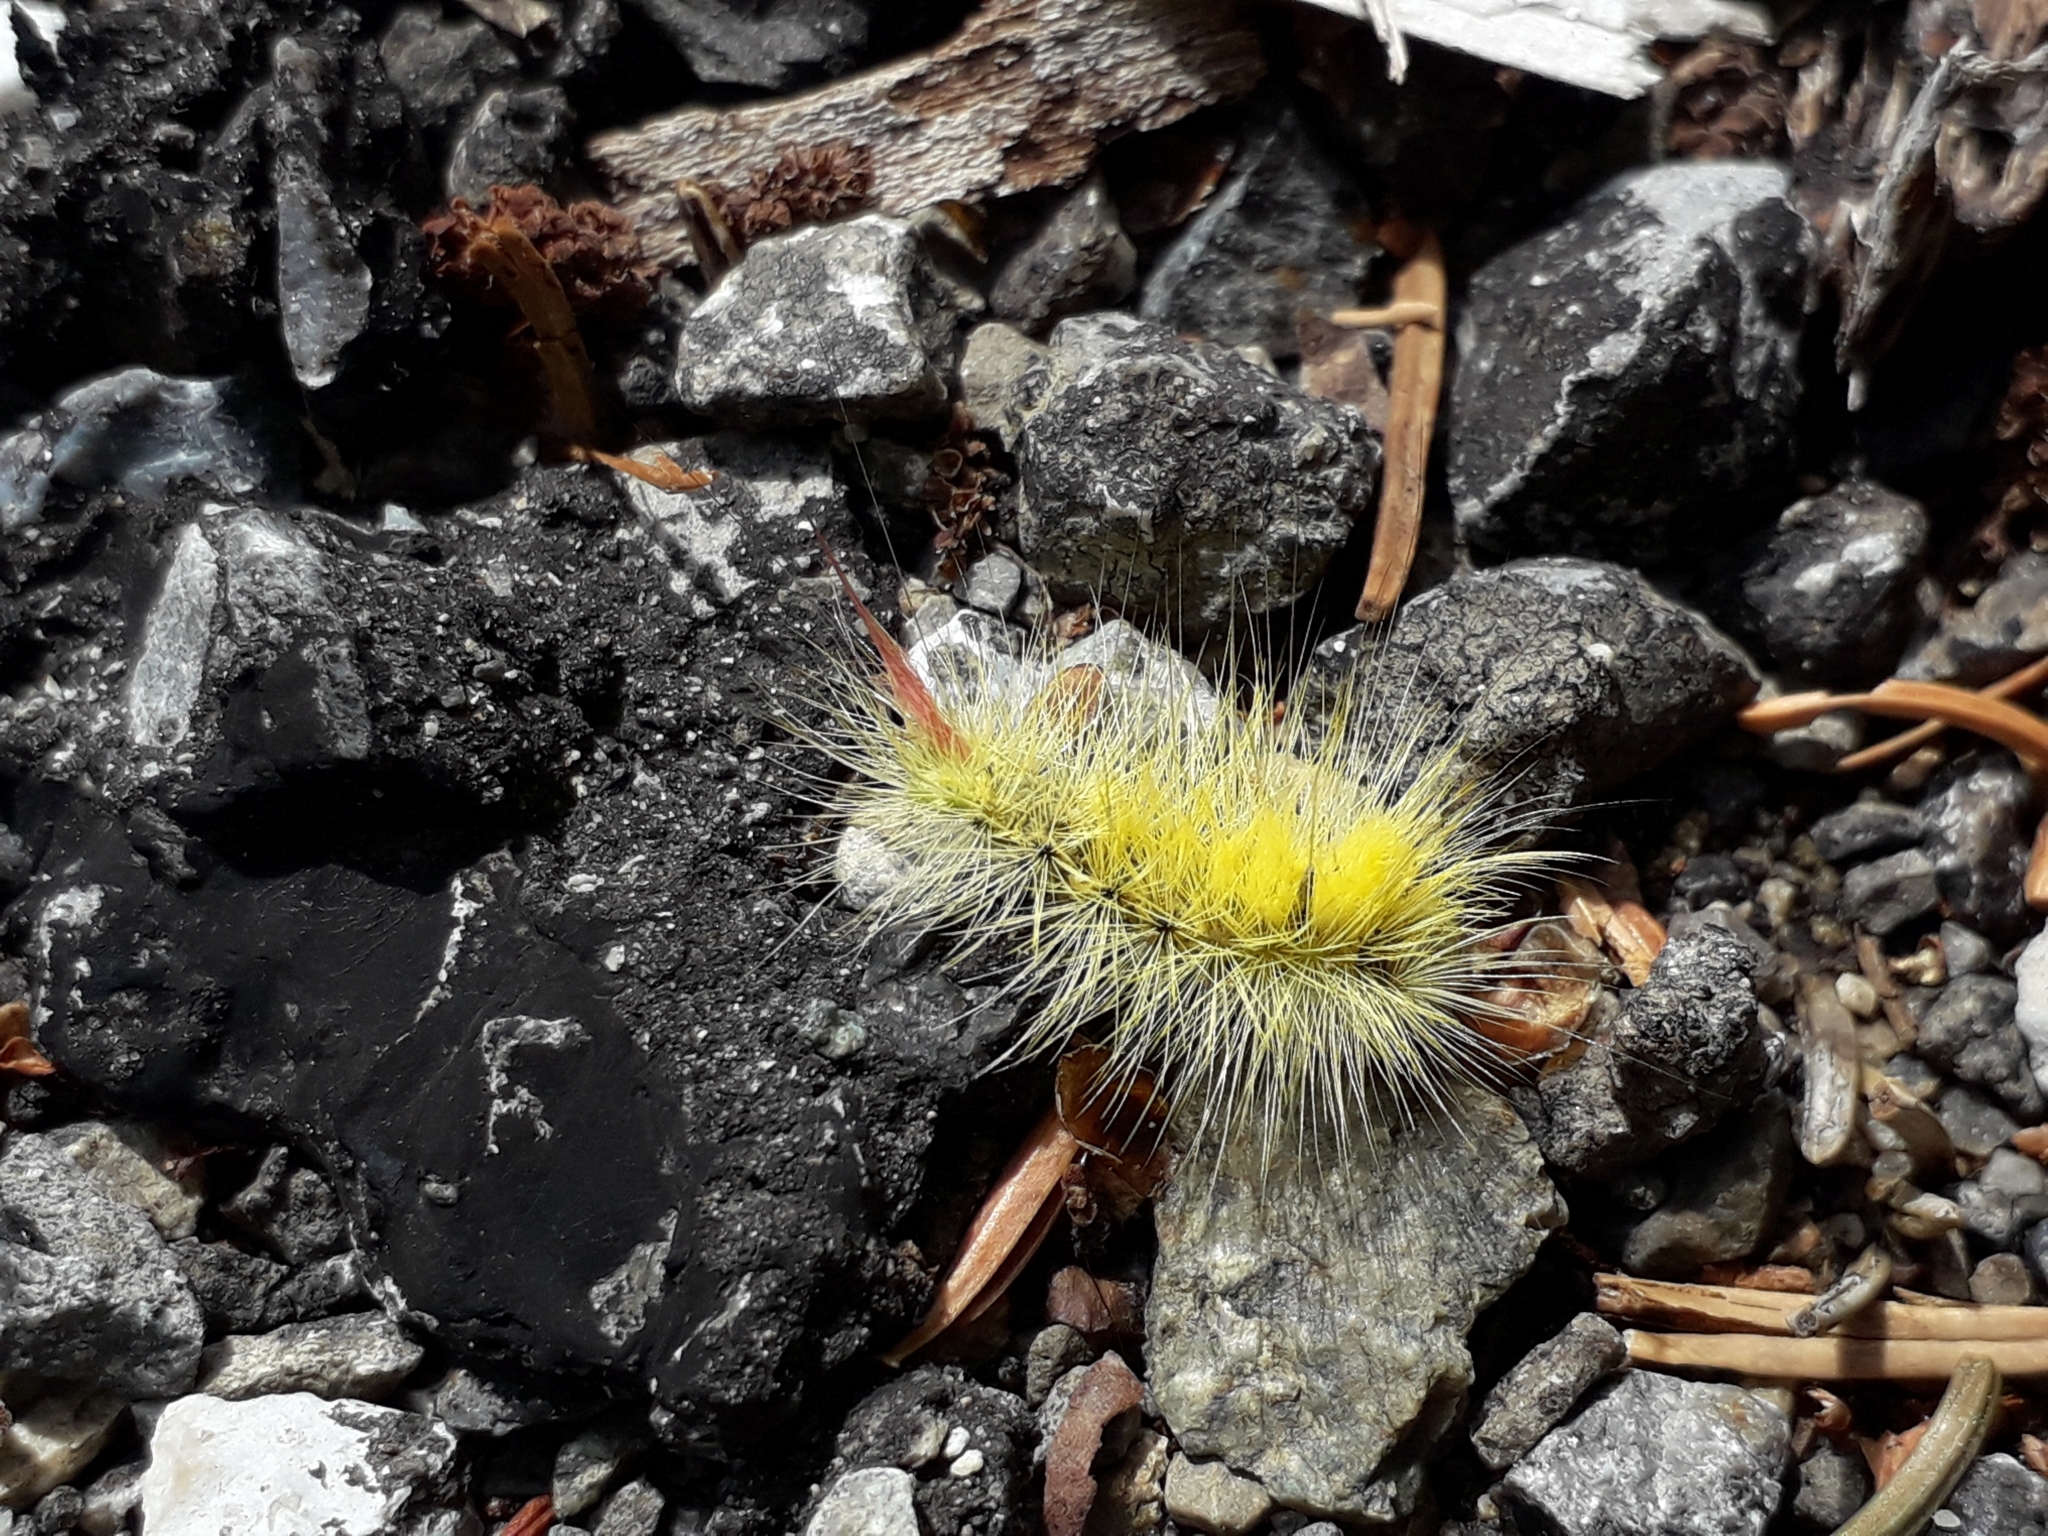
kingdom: Animalia
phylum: Arthropoda
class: Insecta
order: Lepidoptera
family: Erebidae
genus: Calliteara
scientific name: Calliteara pudibunda
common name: Pale tussock
